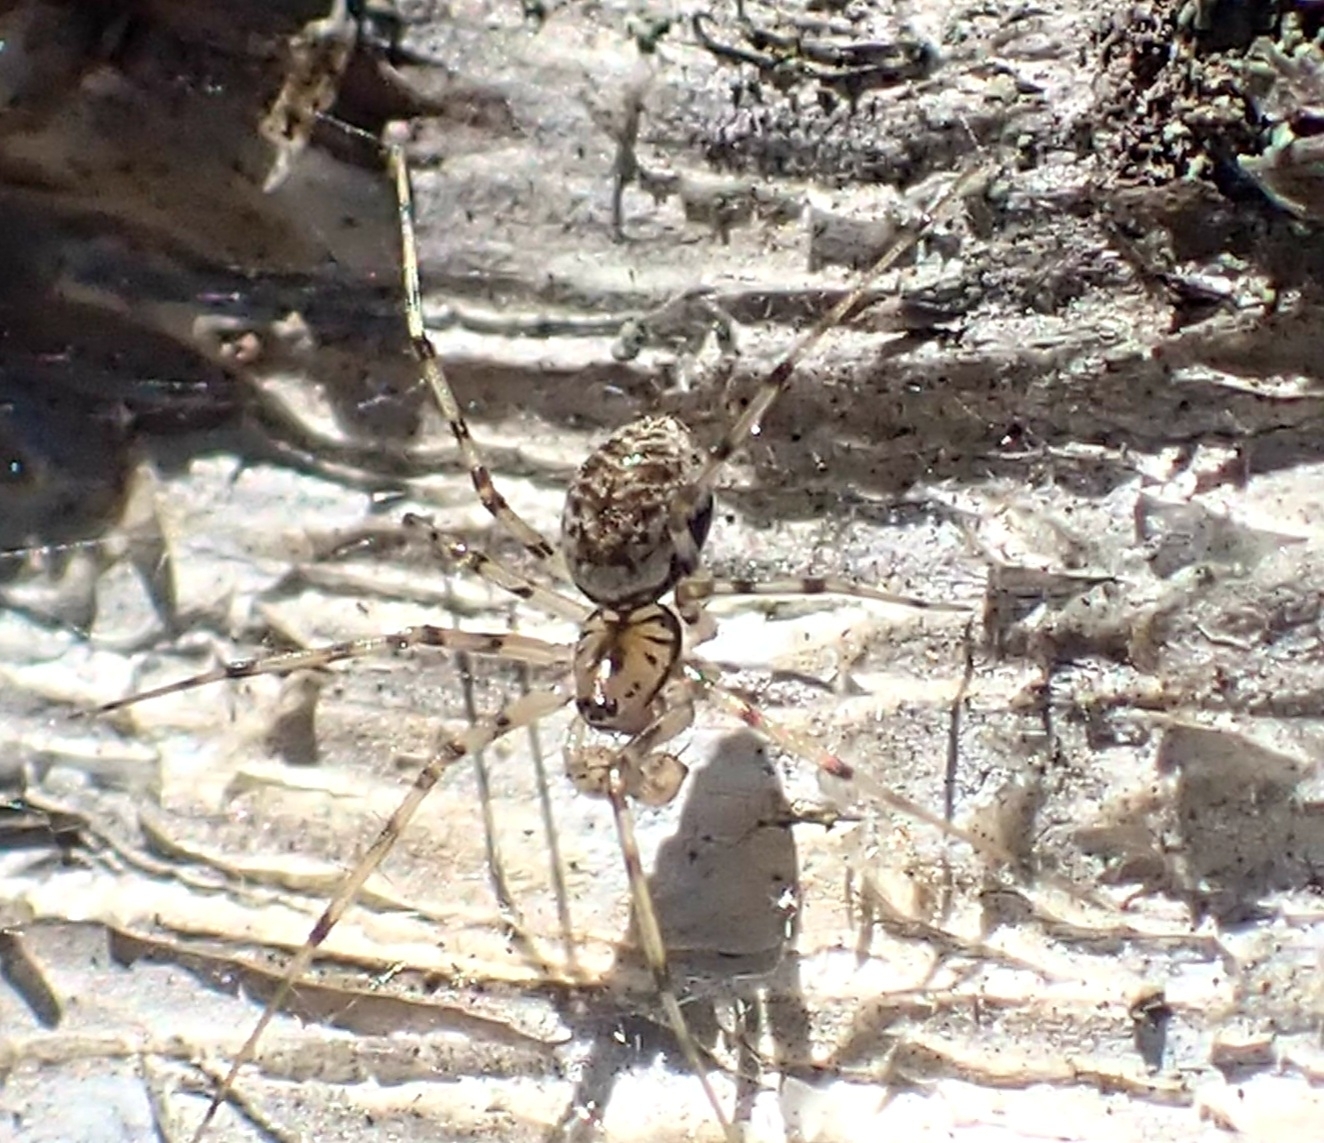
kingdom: Animalia
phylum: Arthropoda
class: Arachnida
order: Araneae
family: Linyphiidae
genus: Drapetisca
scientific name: Drapetisca socialis
